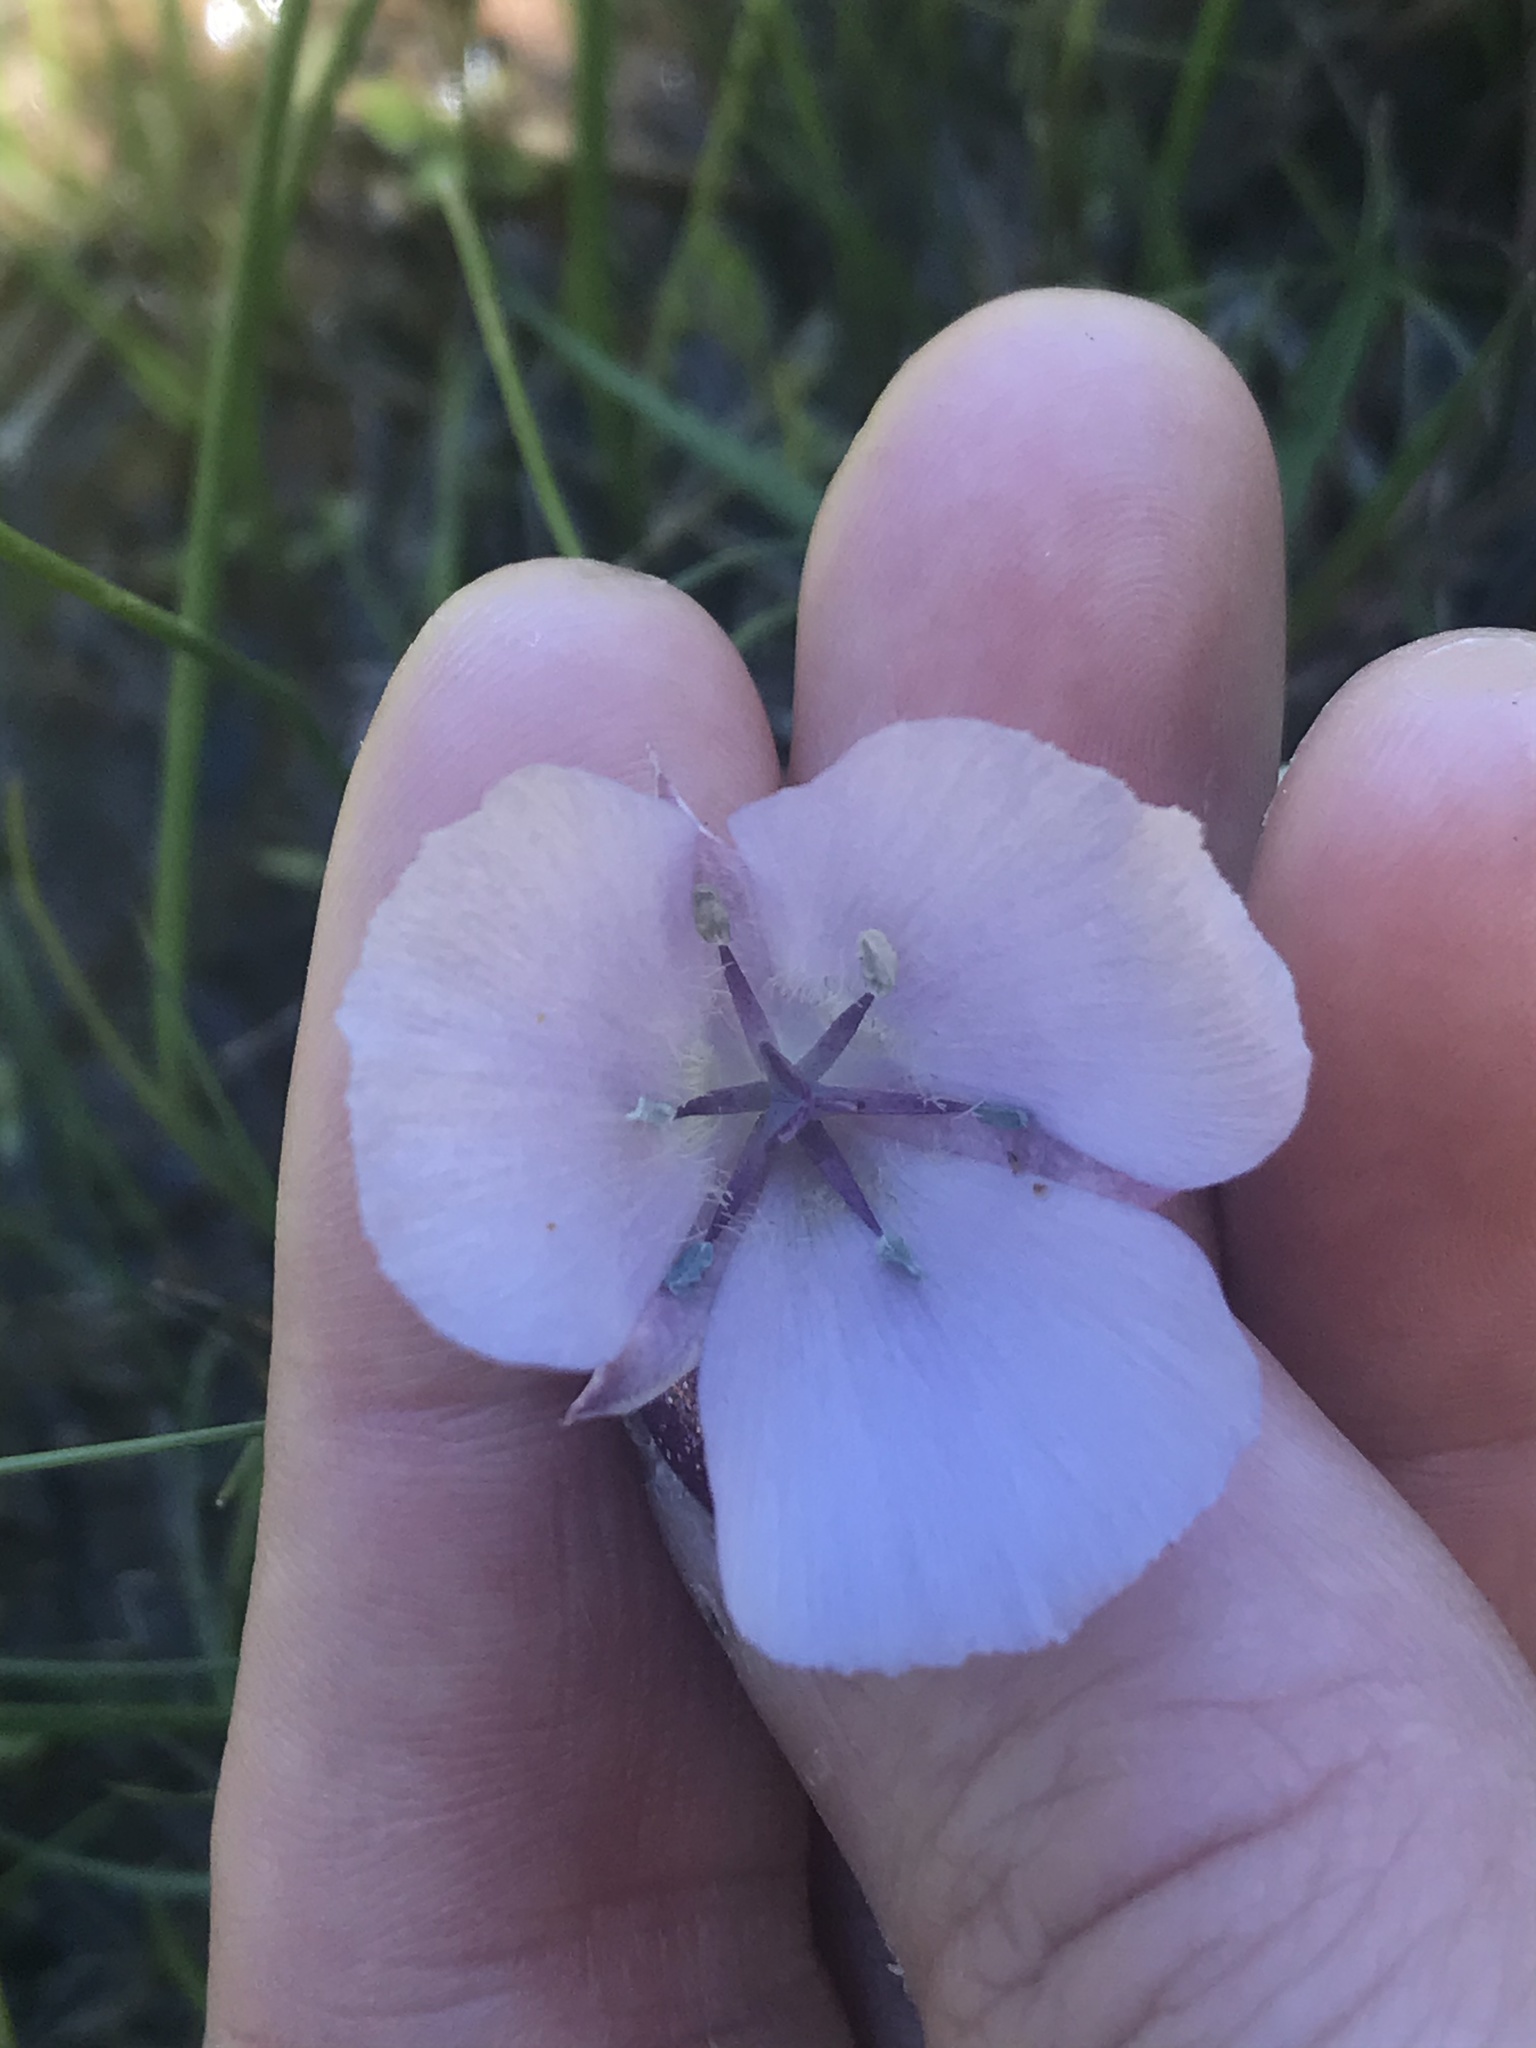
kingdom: Plantae
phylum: Tracheophyta
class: Liliopsida
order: Liliales
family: Liliaceae
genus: Calochortus
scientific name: Calochortus uniflorus
